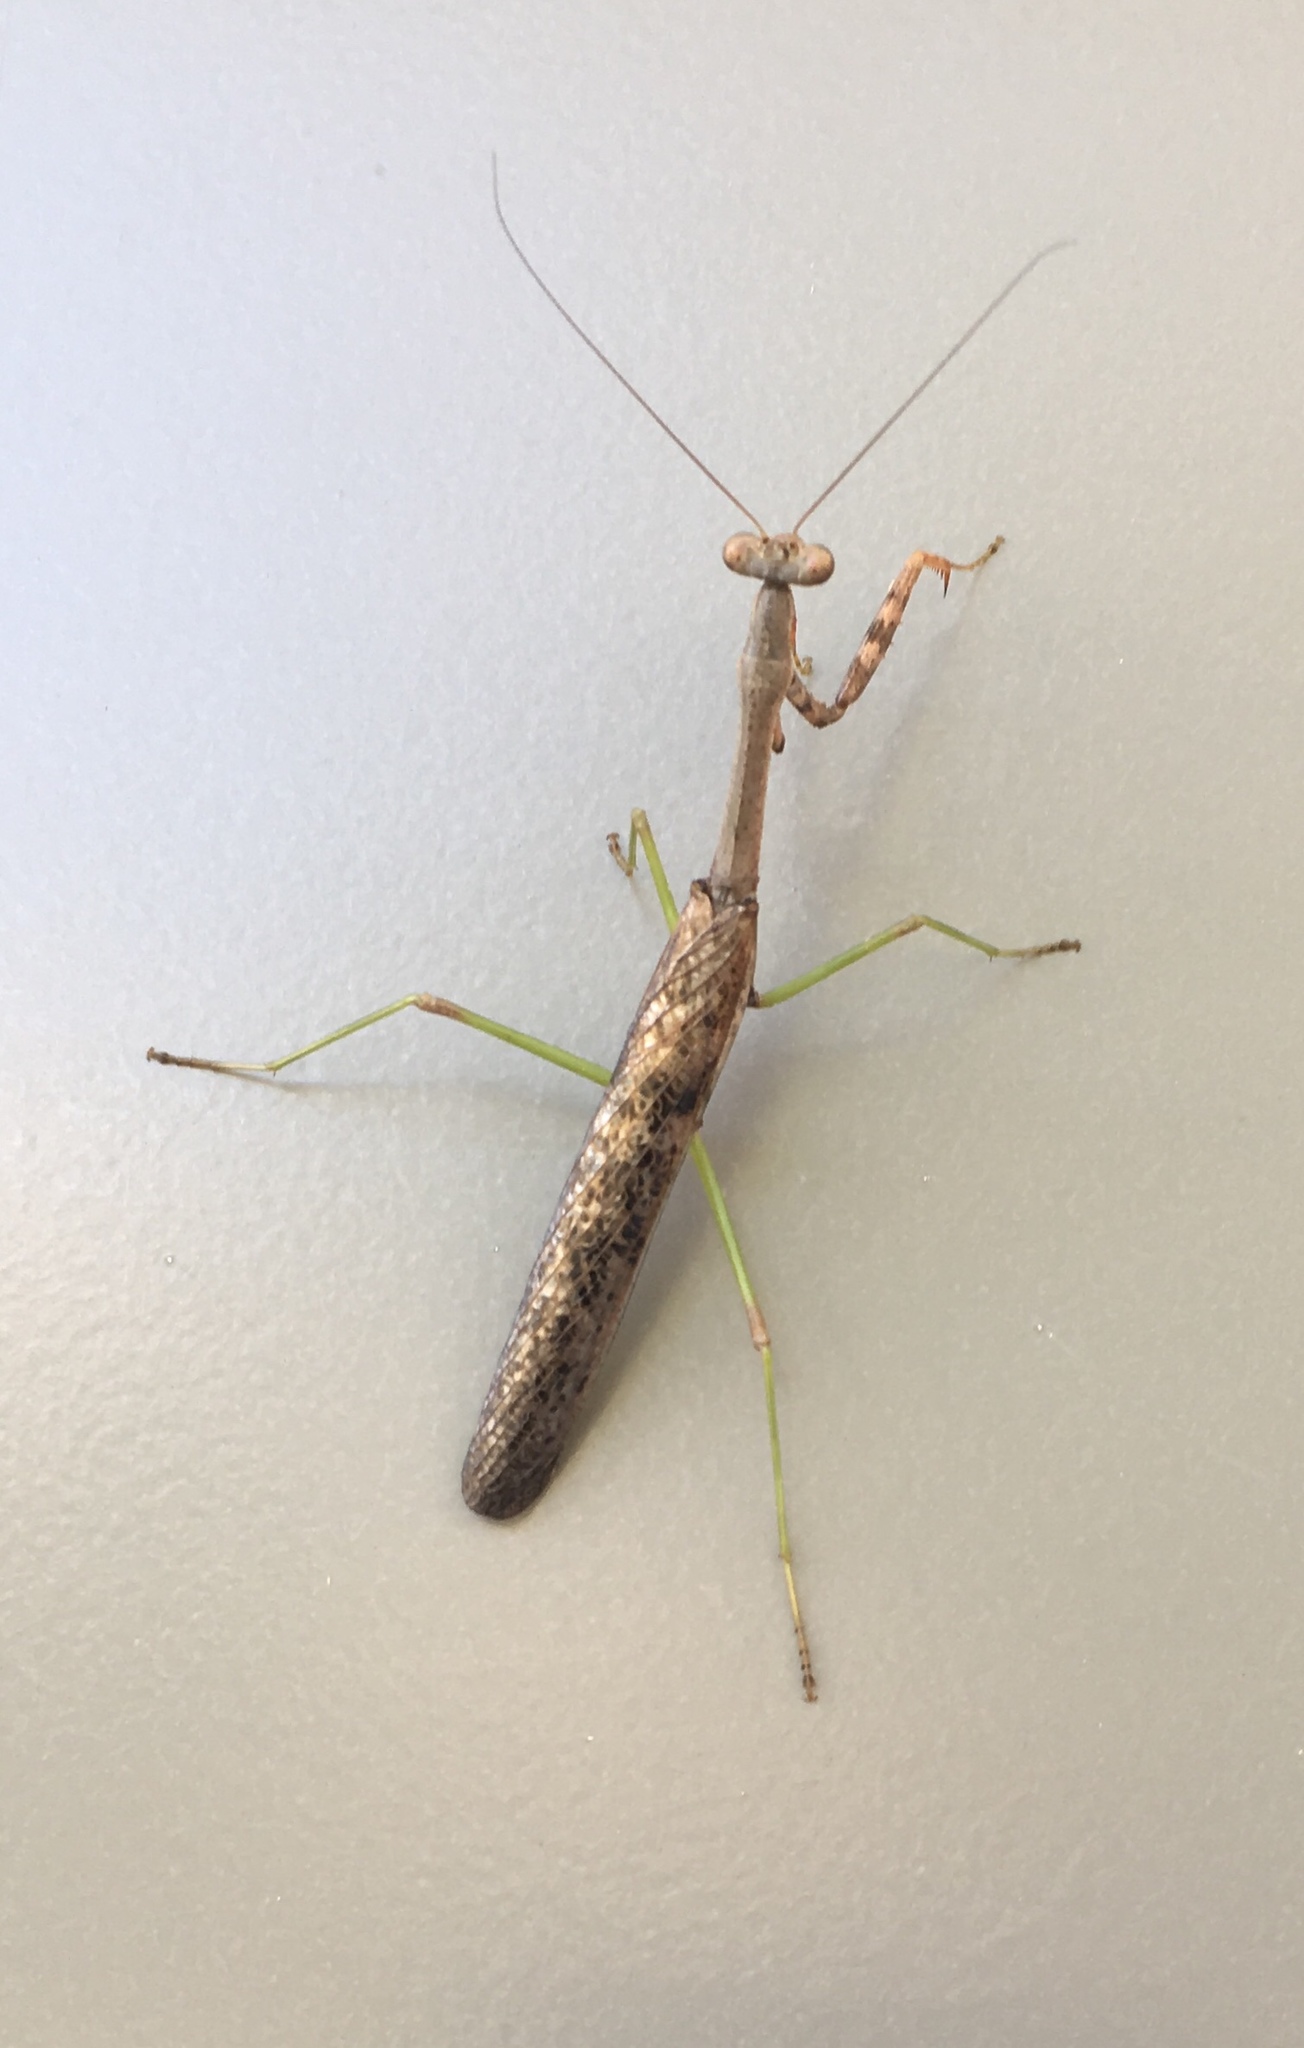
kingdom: Animalia
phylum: Arthropoda
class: Insecta
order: Mantodea
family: Mantidae
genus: Stagmomantis
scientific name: Stagmomantis carolina
